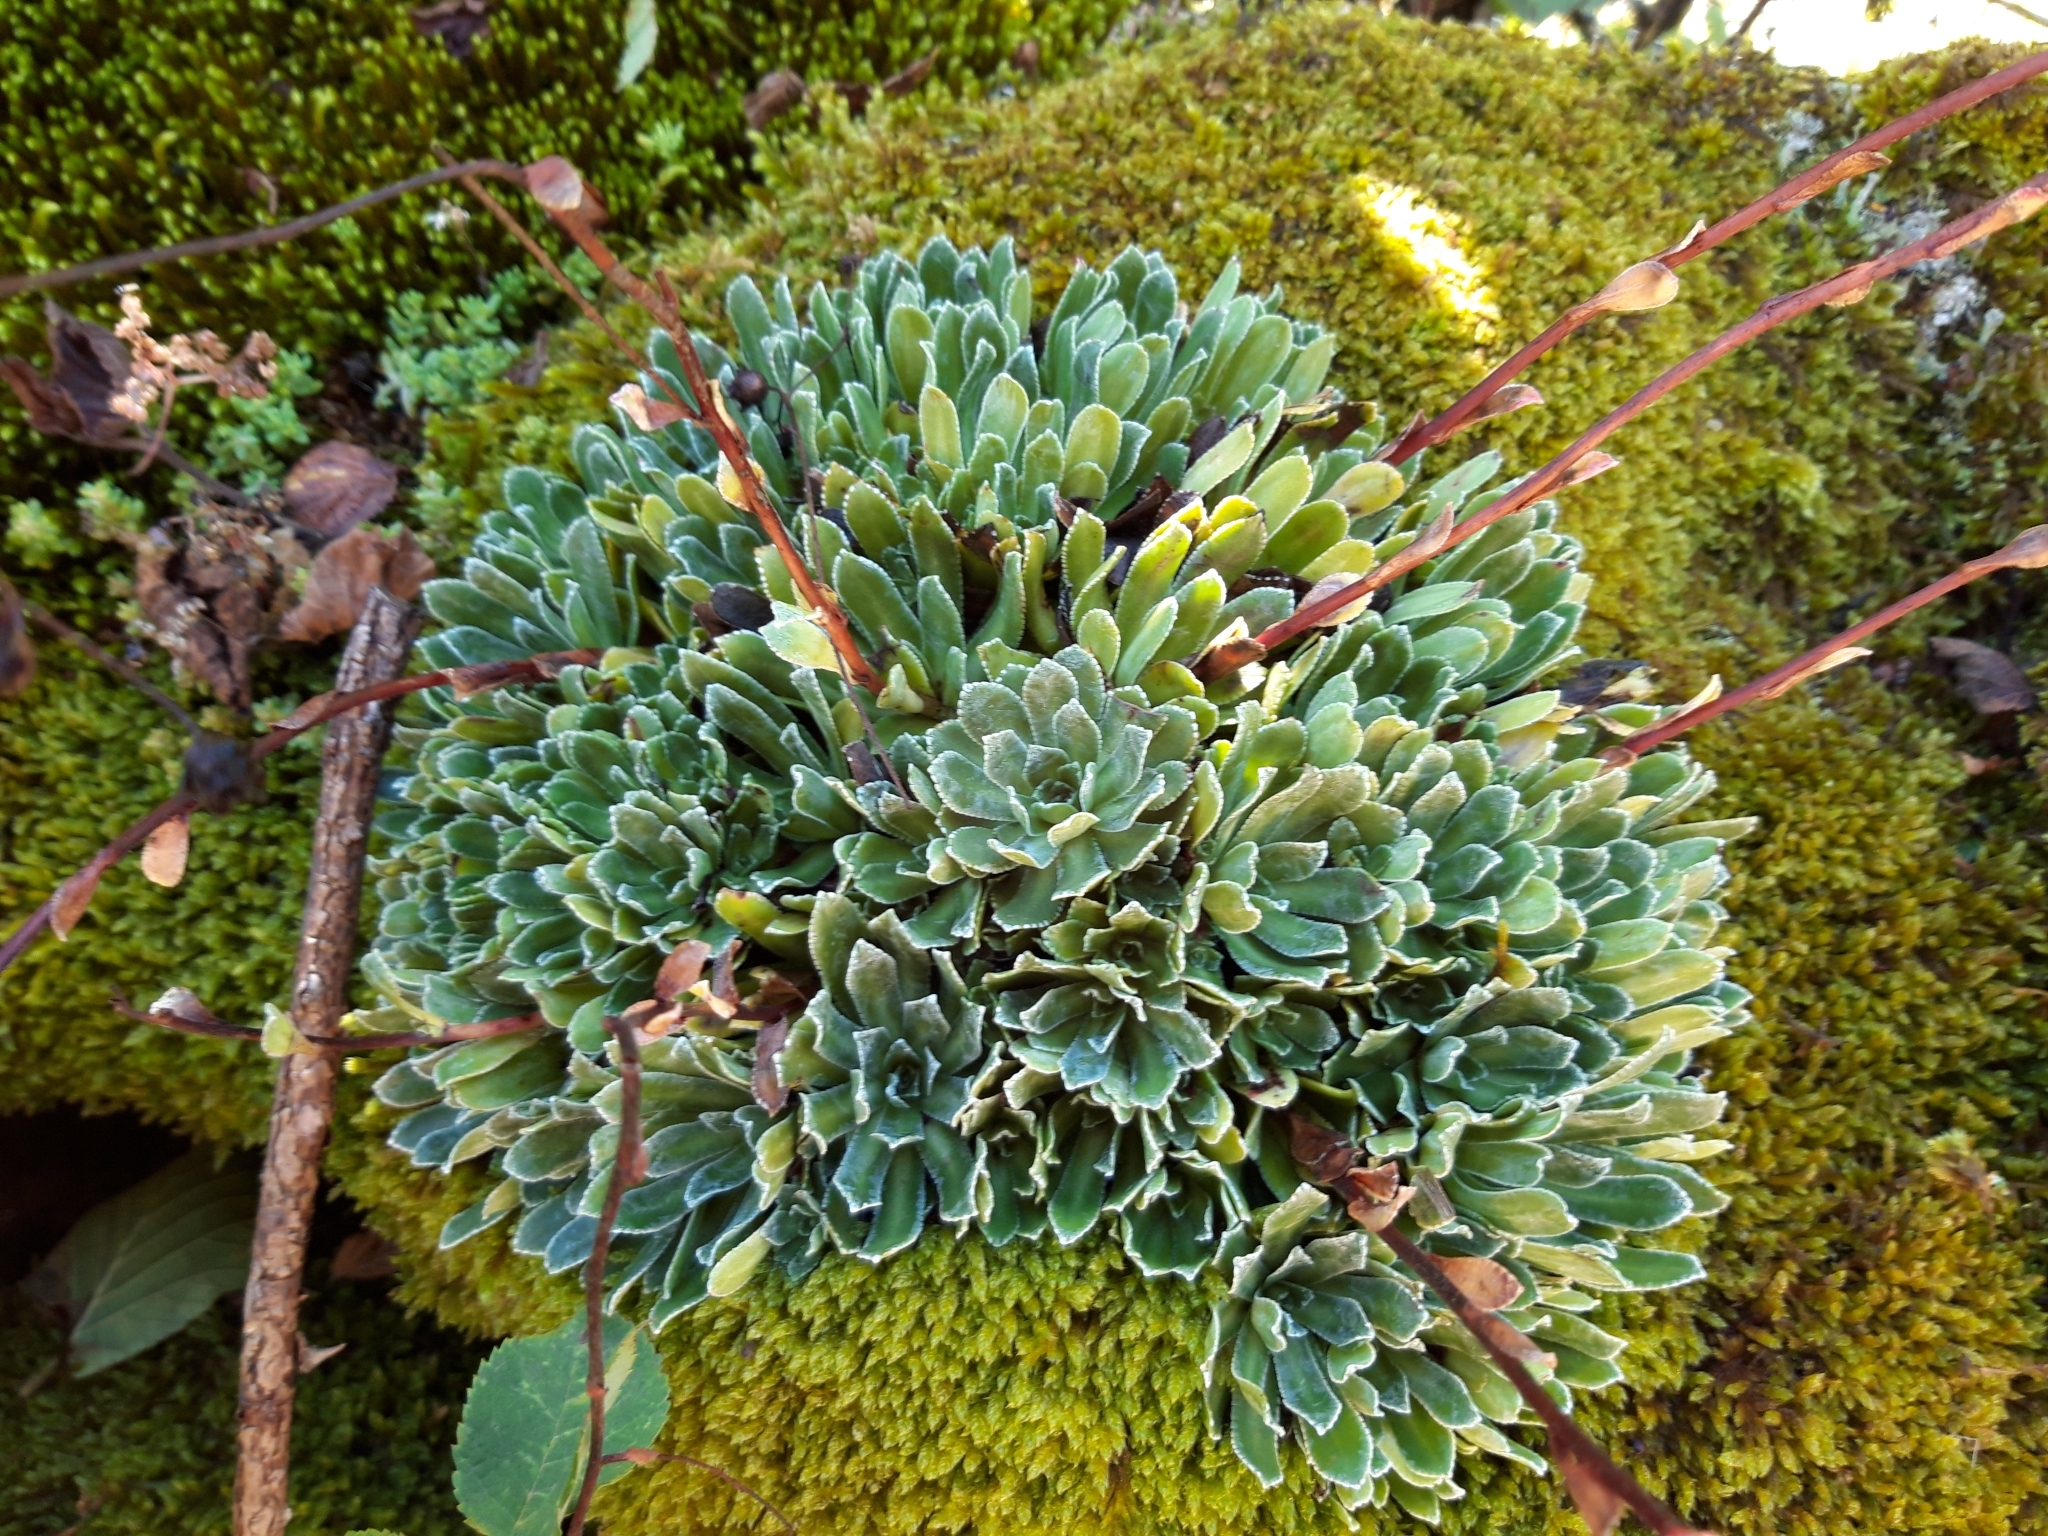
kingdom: Plantae
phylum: Tracheophyta
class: Magnoliopsida
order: Saxifragales
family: Saxifragaceae
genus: Saxifraga
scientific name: Saxifraga paniculata
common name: Livelong saxifrage
